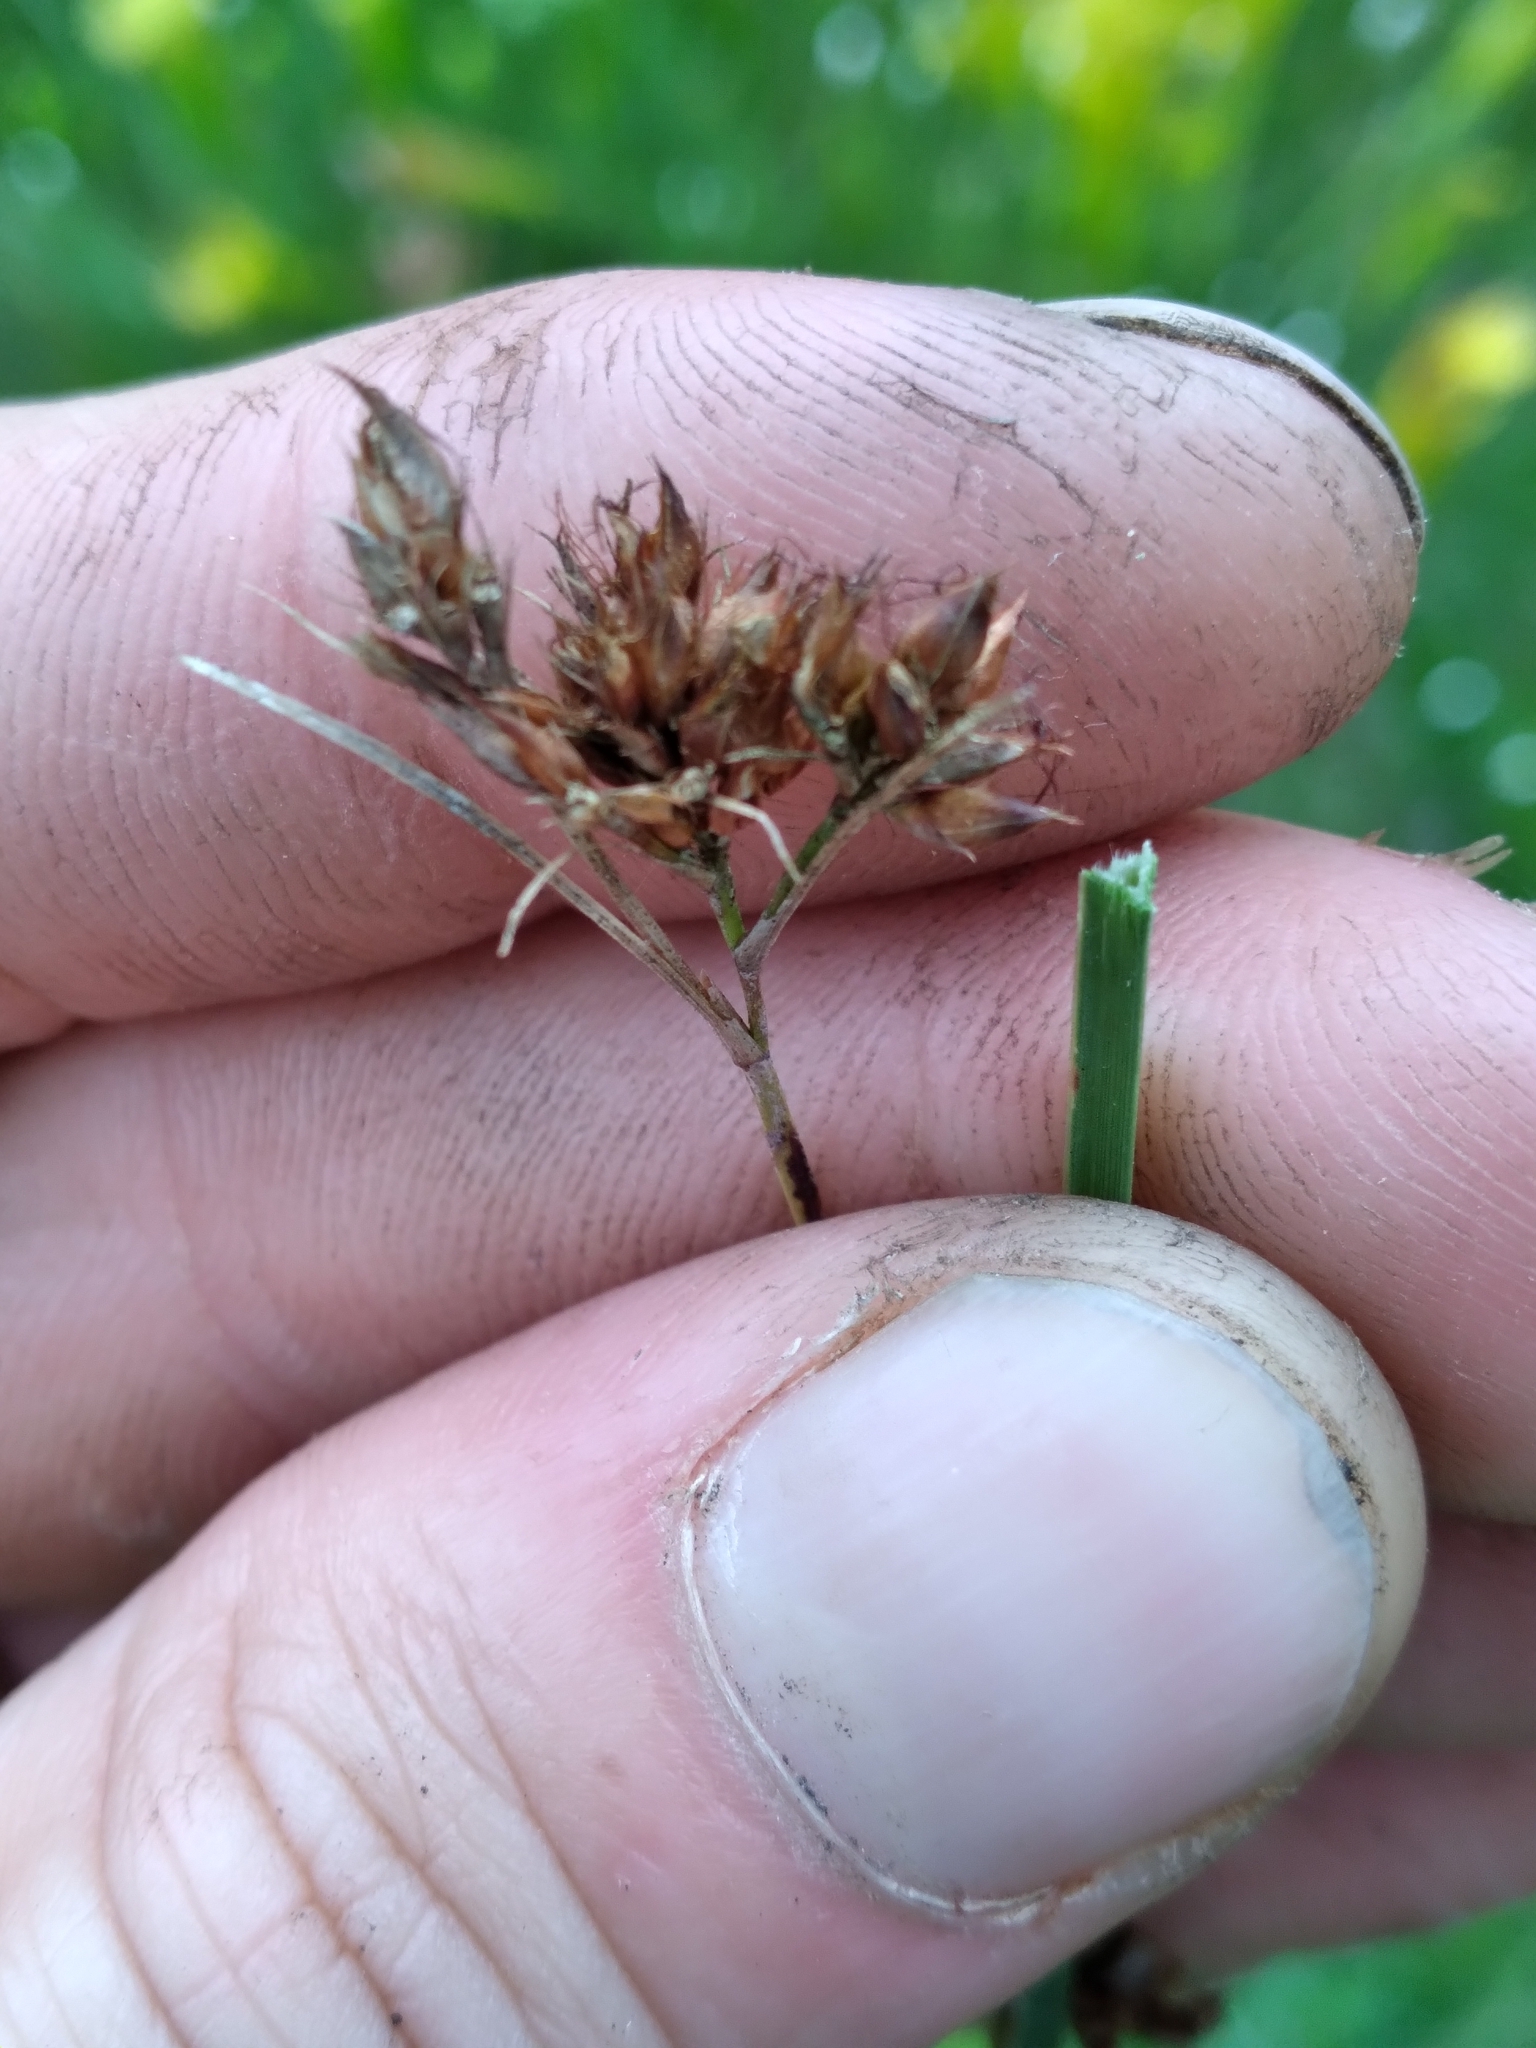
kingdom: Plantae
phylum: Tracheophyta
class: Liliopsida
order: Poales
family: Cyperaceae
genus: Rhynchospora
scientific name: Rhynchospora baldwinii
